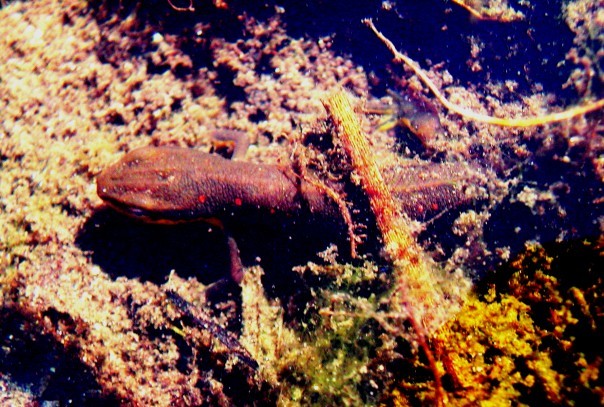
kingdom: Animalia
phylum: Chordata
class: Amphibia
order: Caudata
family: Salamandridae
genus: Notophthalmus
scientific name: Notophthalmus viridescens
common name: Eastern newt
